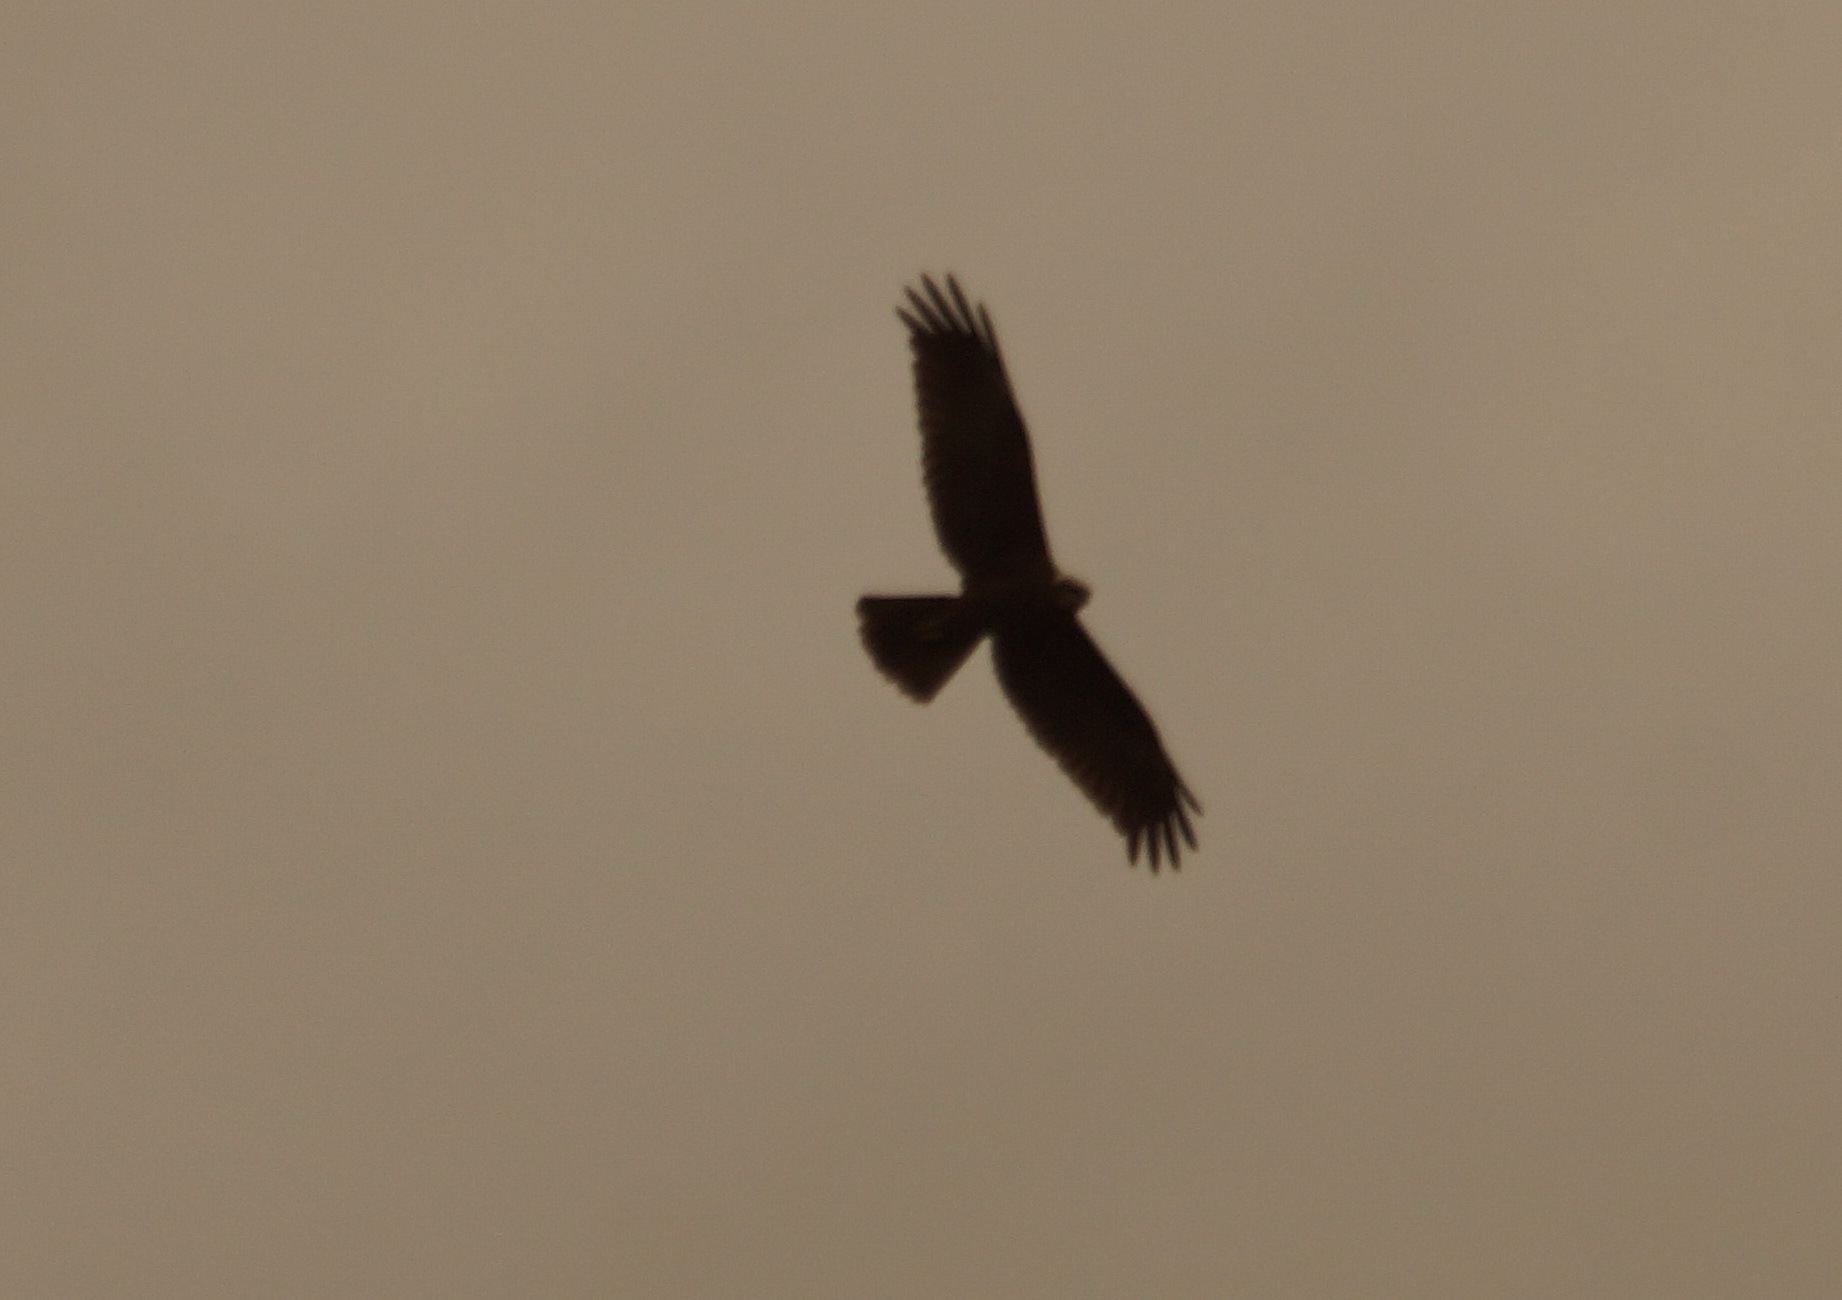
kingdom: Animalia
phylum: Chordata
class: Aves
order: Accipitriformes
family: Accipitridae
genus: Circus
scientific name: Circus aeruginosus
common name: Western marsh harrier
